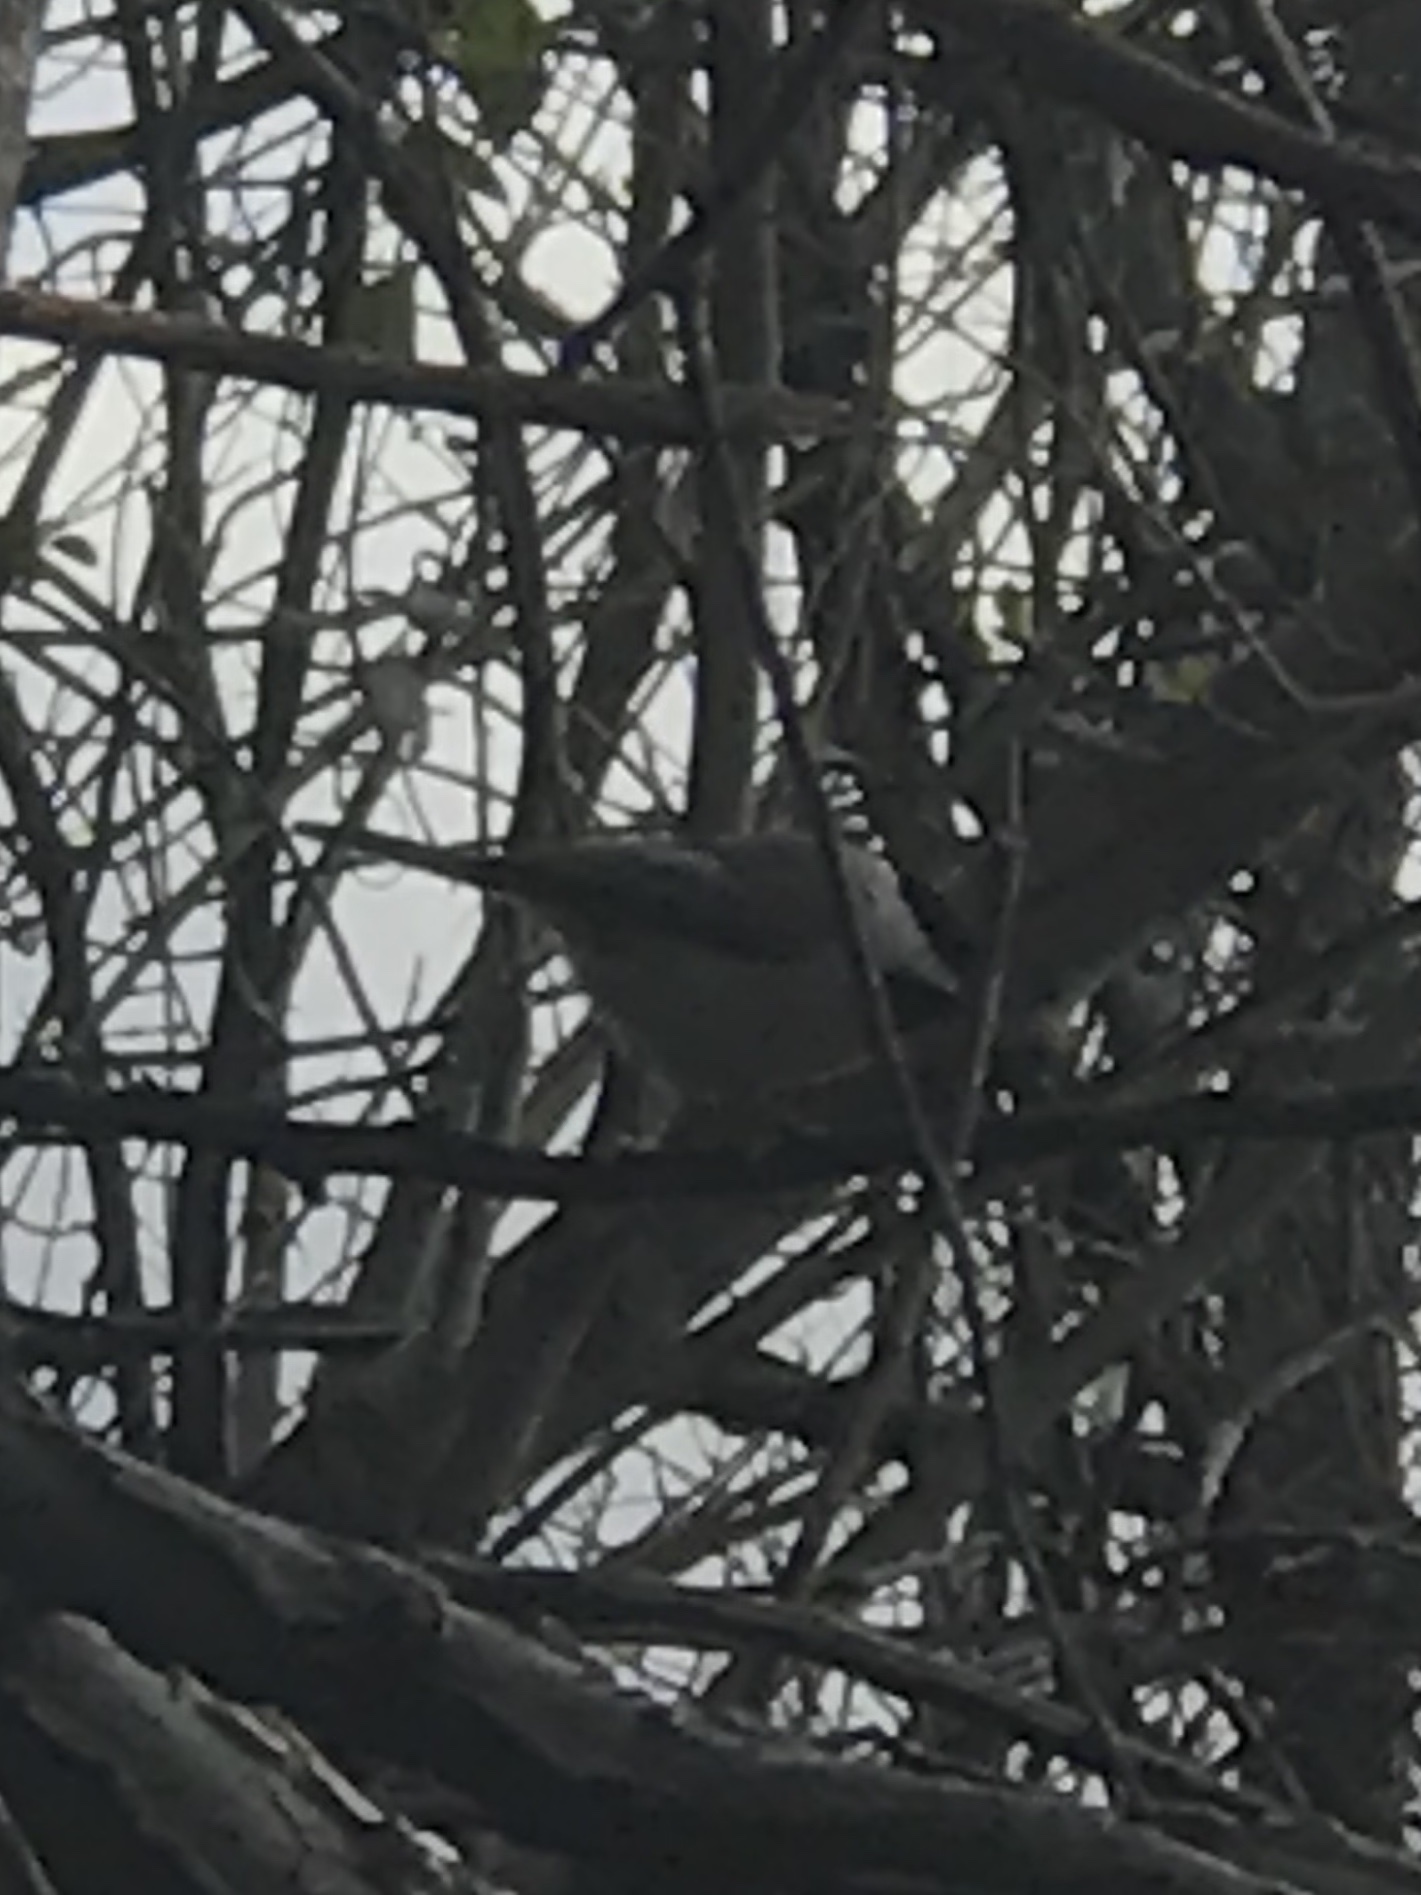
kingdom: Animalia
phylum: Chordata
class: Aves
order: Passeriformes
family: Paridae
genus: Poecile
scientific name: Poecile carolinensis
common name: Carolina chickadee
